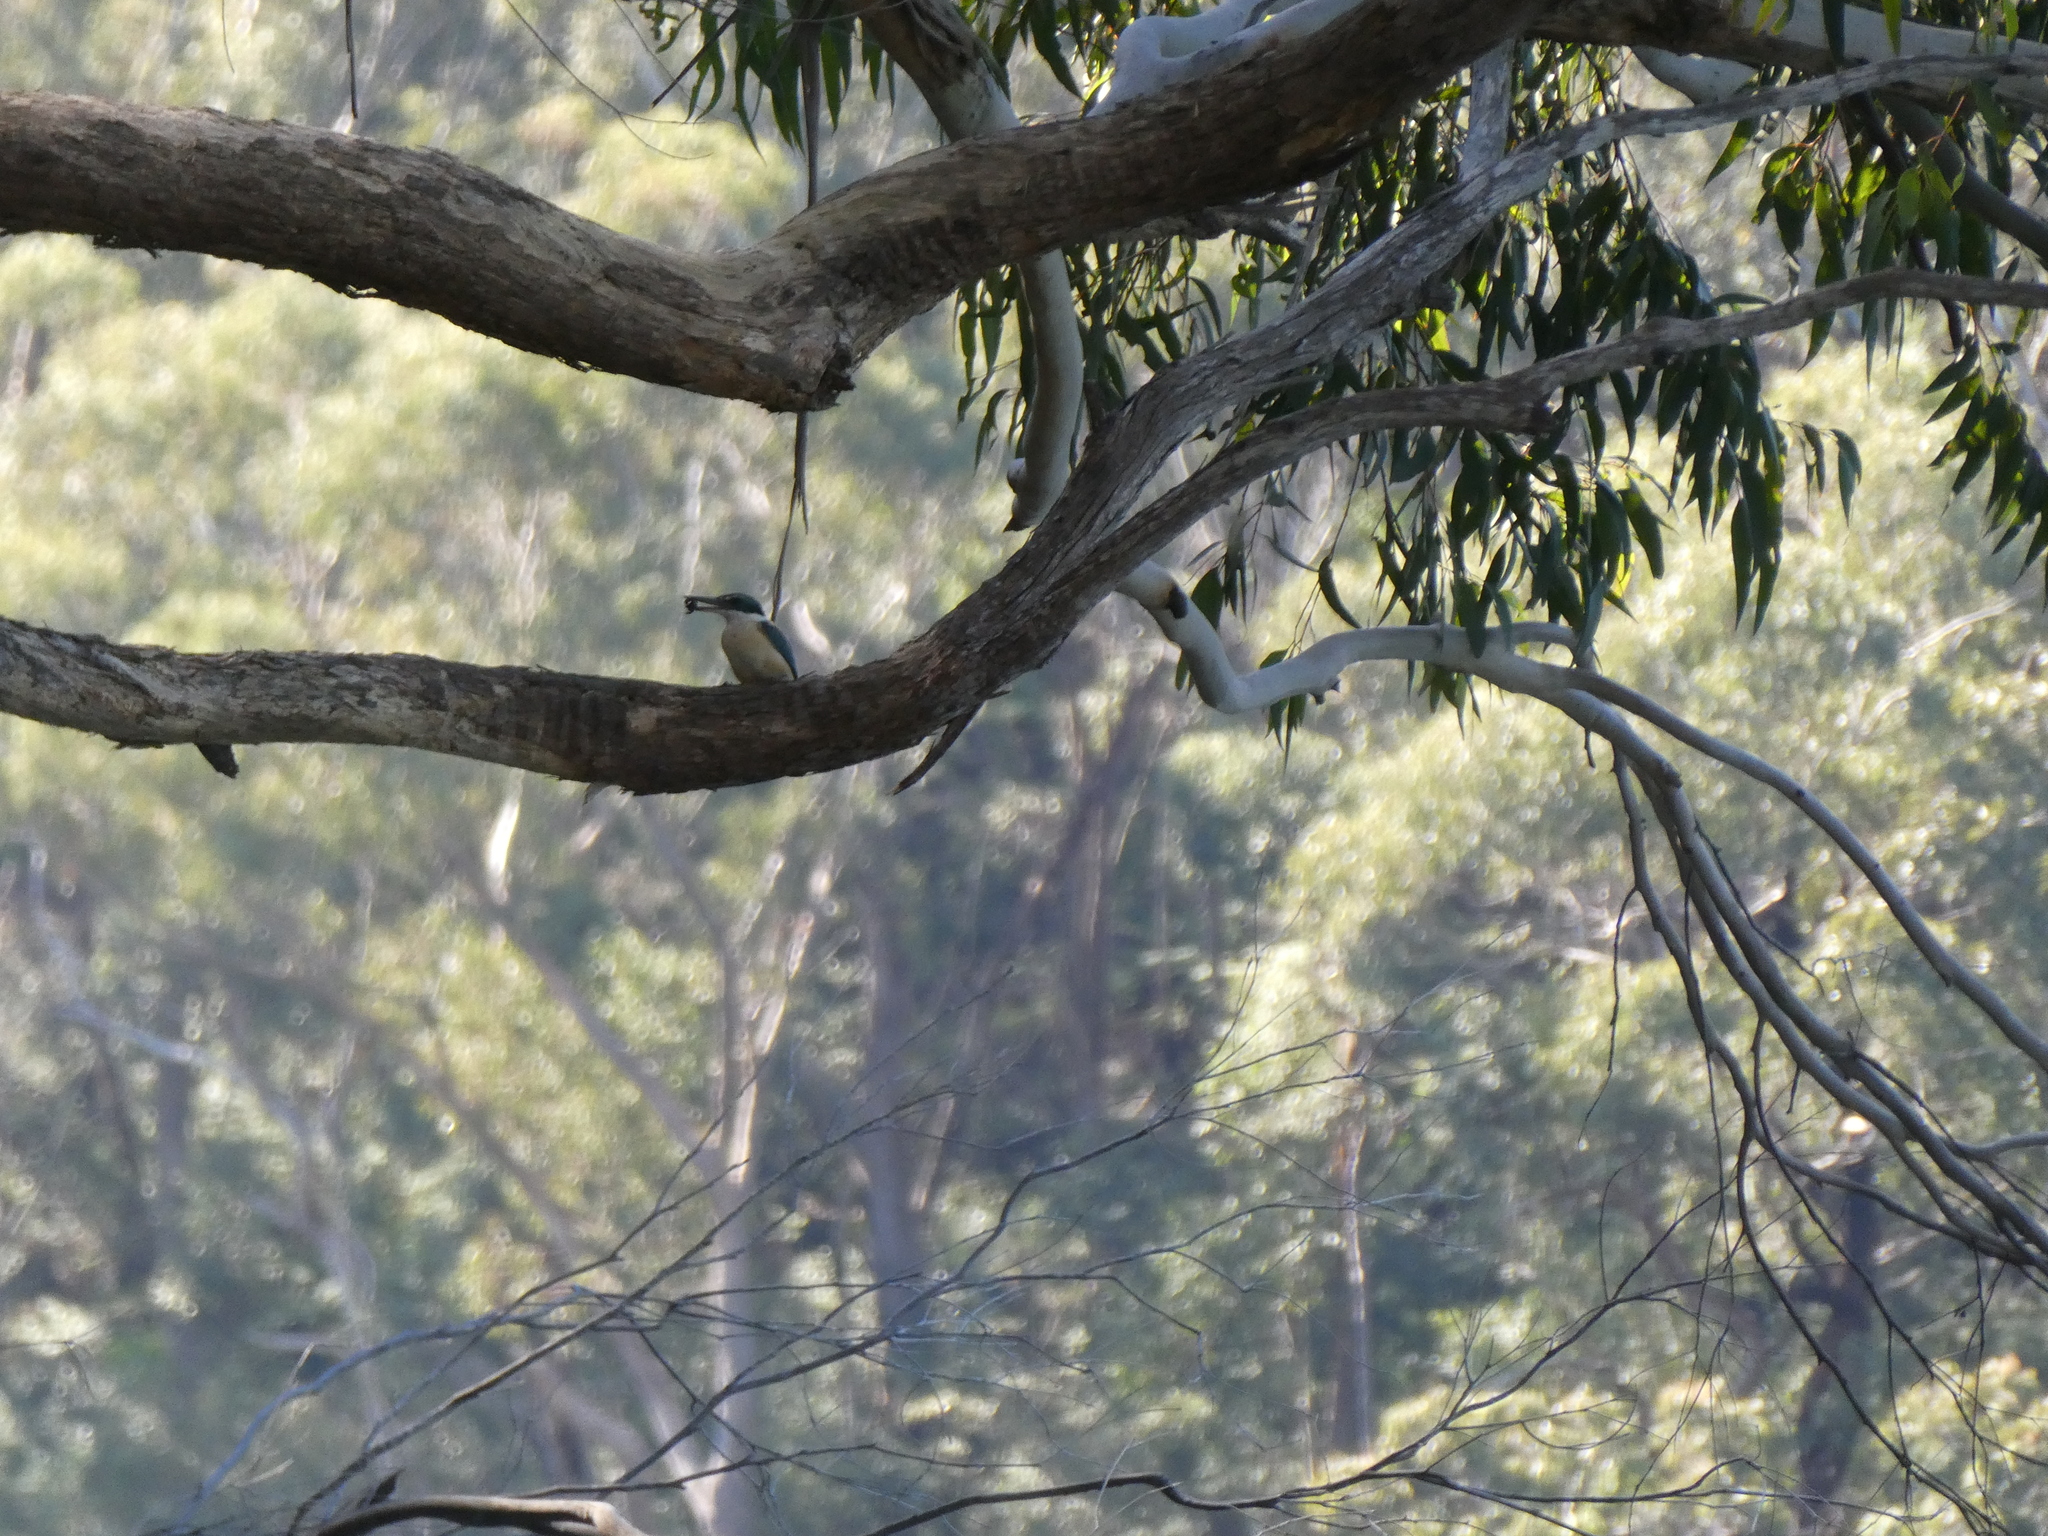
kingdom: Animalia
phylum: Chordata
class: Aves
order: Coraciiformes
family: Alcedinidae
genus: Todiramphus
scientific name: Todiramphus sanctus
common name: Sacred kingfisher
